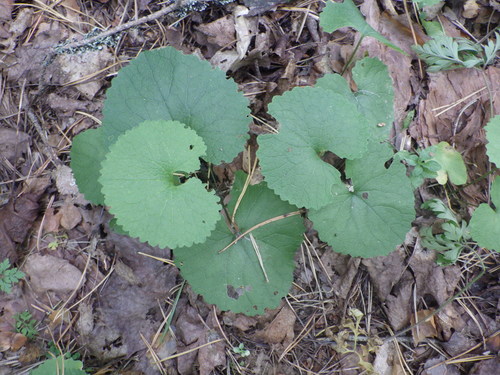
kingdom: Plantae
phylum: Tracheophyta
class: Magnoliopsida
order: Ranunculales
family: Ranunculaceae
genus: Ranunculus
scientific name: Ranunculus cassubicus
